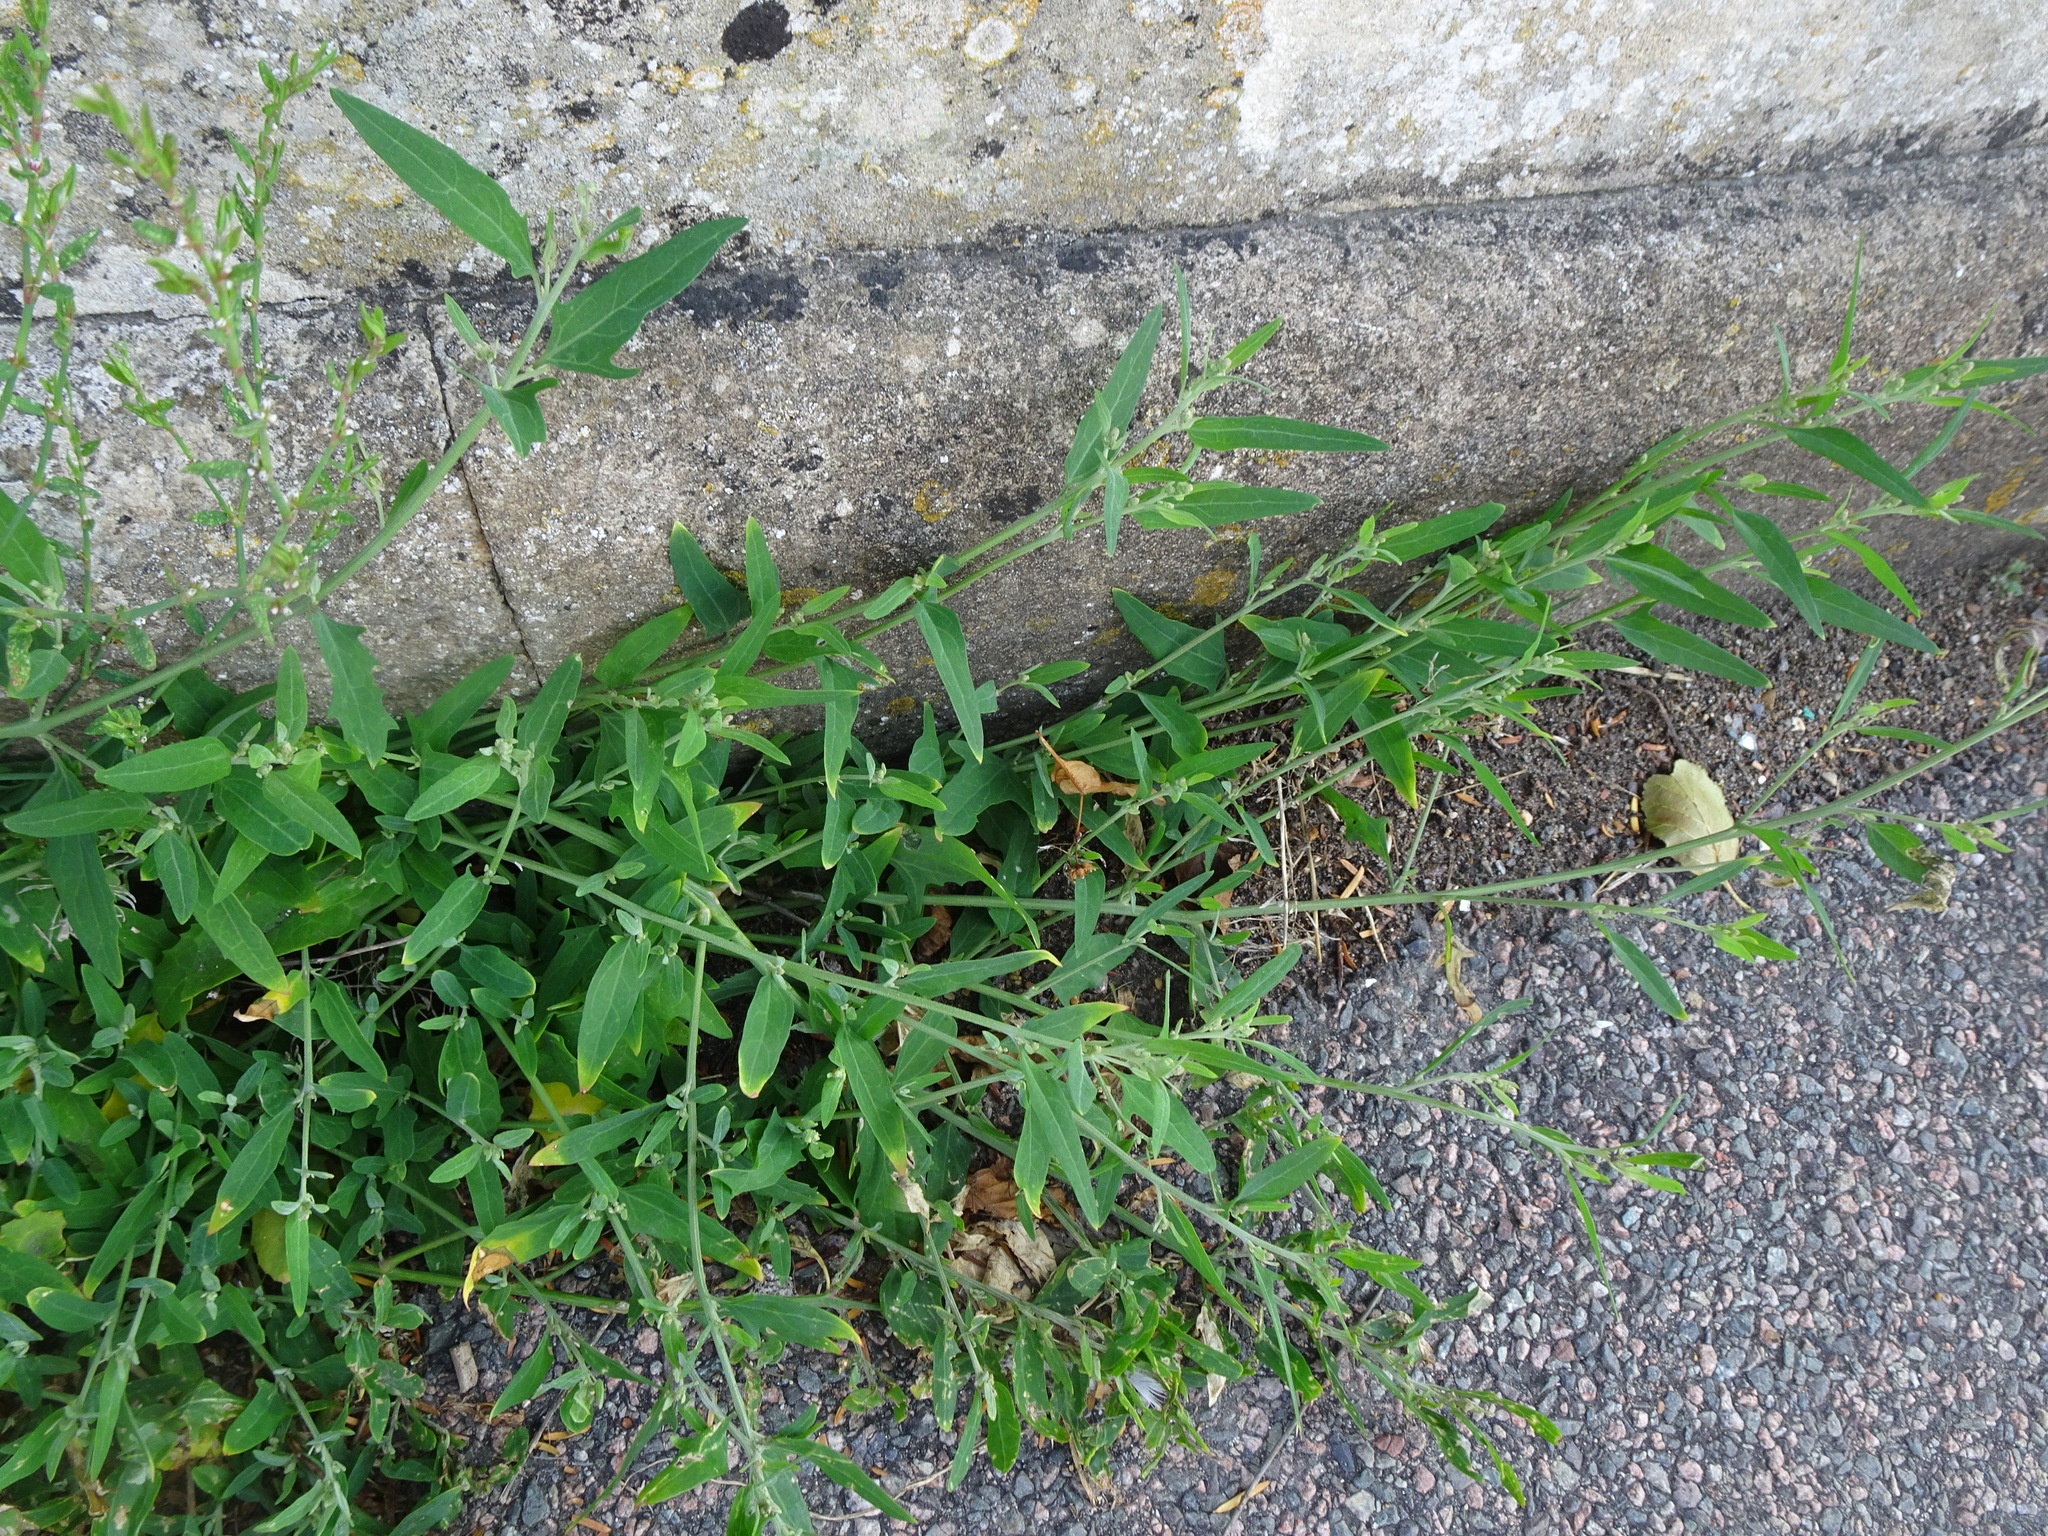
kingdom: Plantae
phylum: Tracheophyta
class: Magnoliopsida
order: Caryophyllales
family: Amaranthaceae
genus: Atriplex
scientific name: Atriplex patula
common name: Common orache
